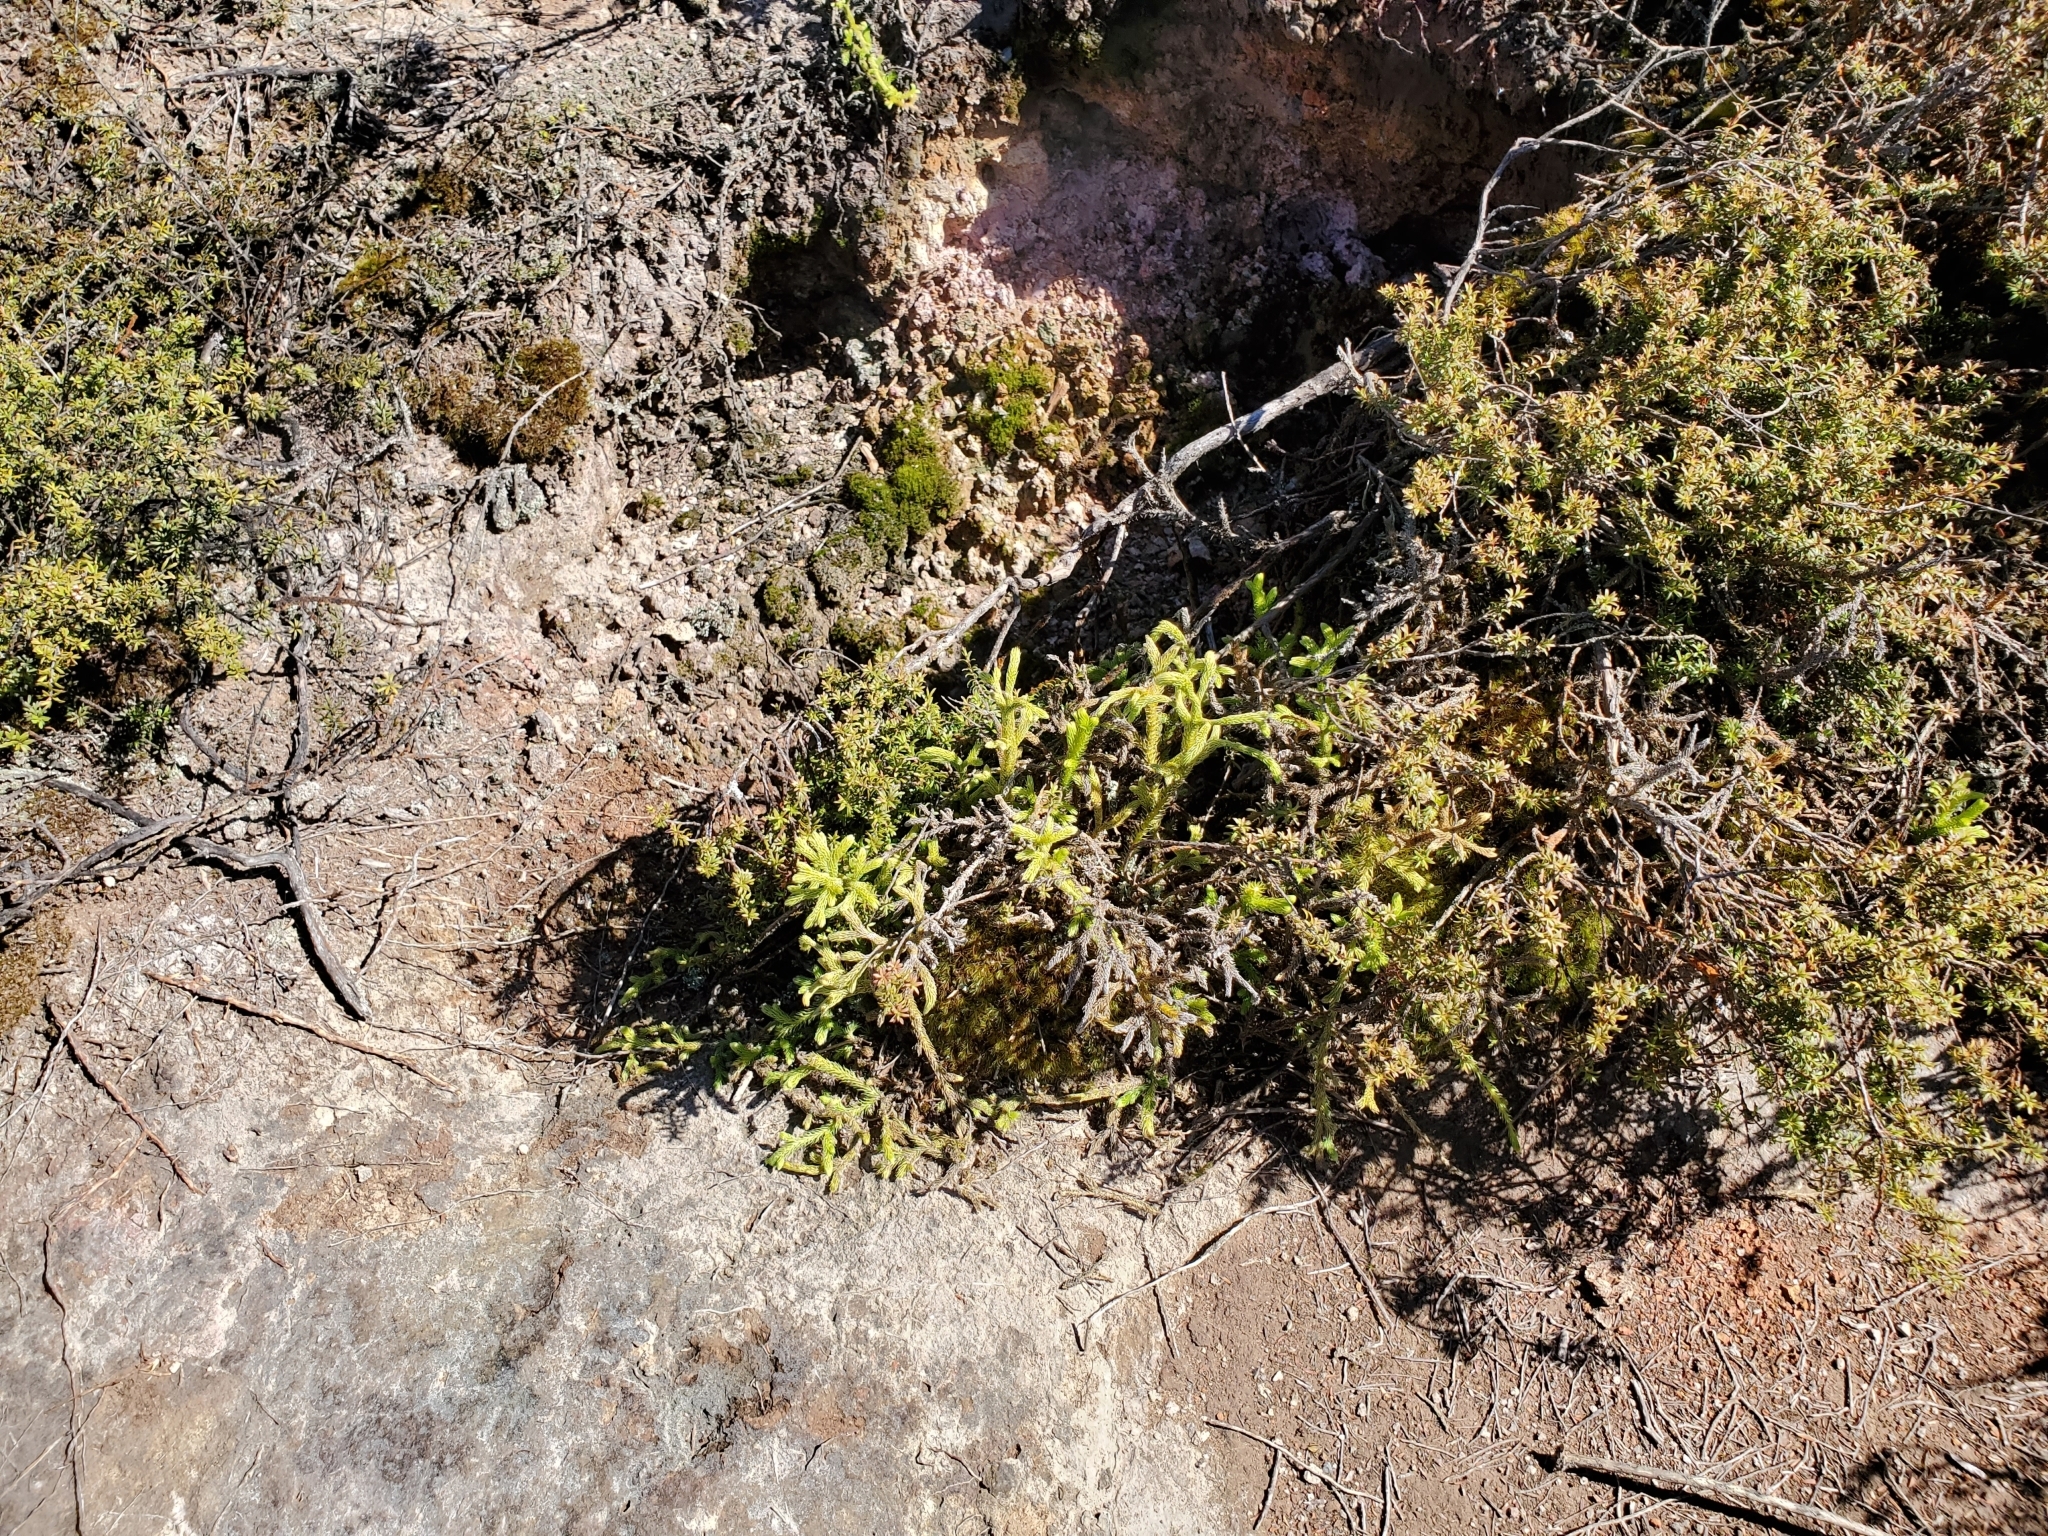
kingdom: Plantae
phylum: Tracheophyta
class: Lycopodiopsida
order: Lycopodiales
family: Lycopodiaceae
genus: Palhinhaea
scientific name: Palhinhaea cernua
